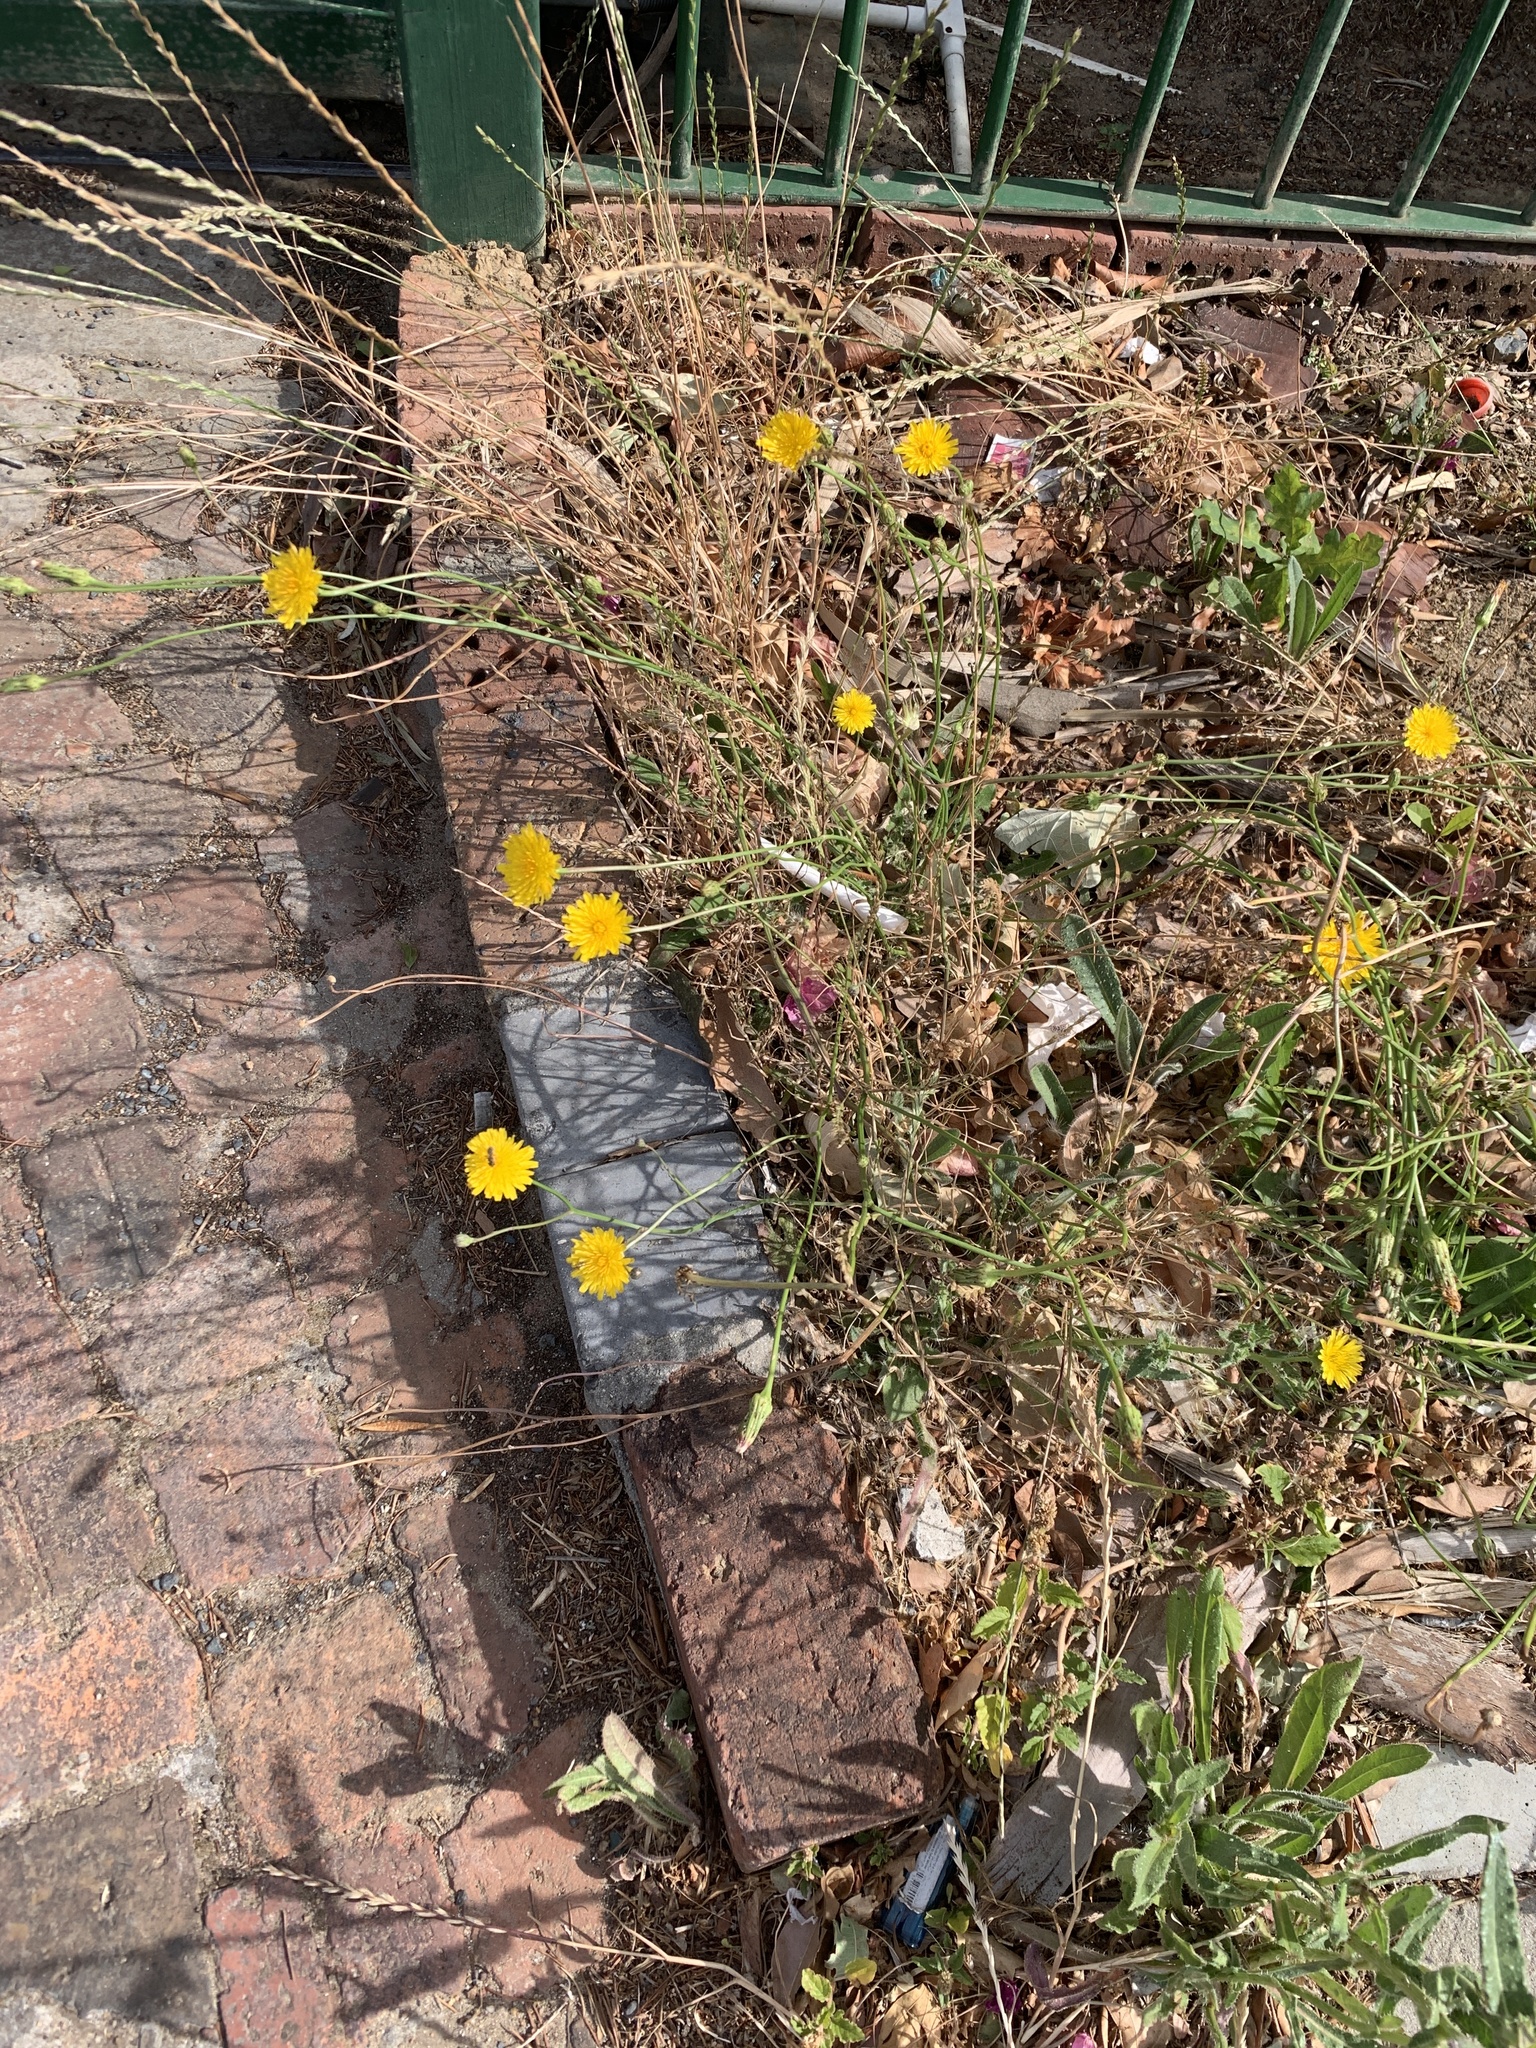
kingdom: Plantae
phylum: Tracheophyta
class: Magnoliopsida
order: Asterales
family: Asteraceae
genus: Hypochaeris
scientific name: Hypochaeris radicata
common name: Flatweed
